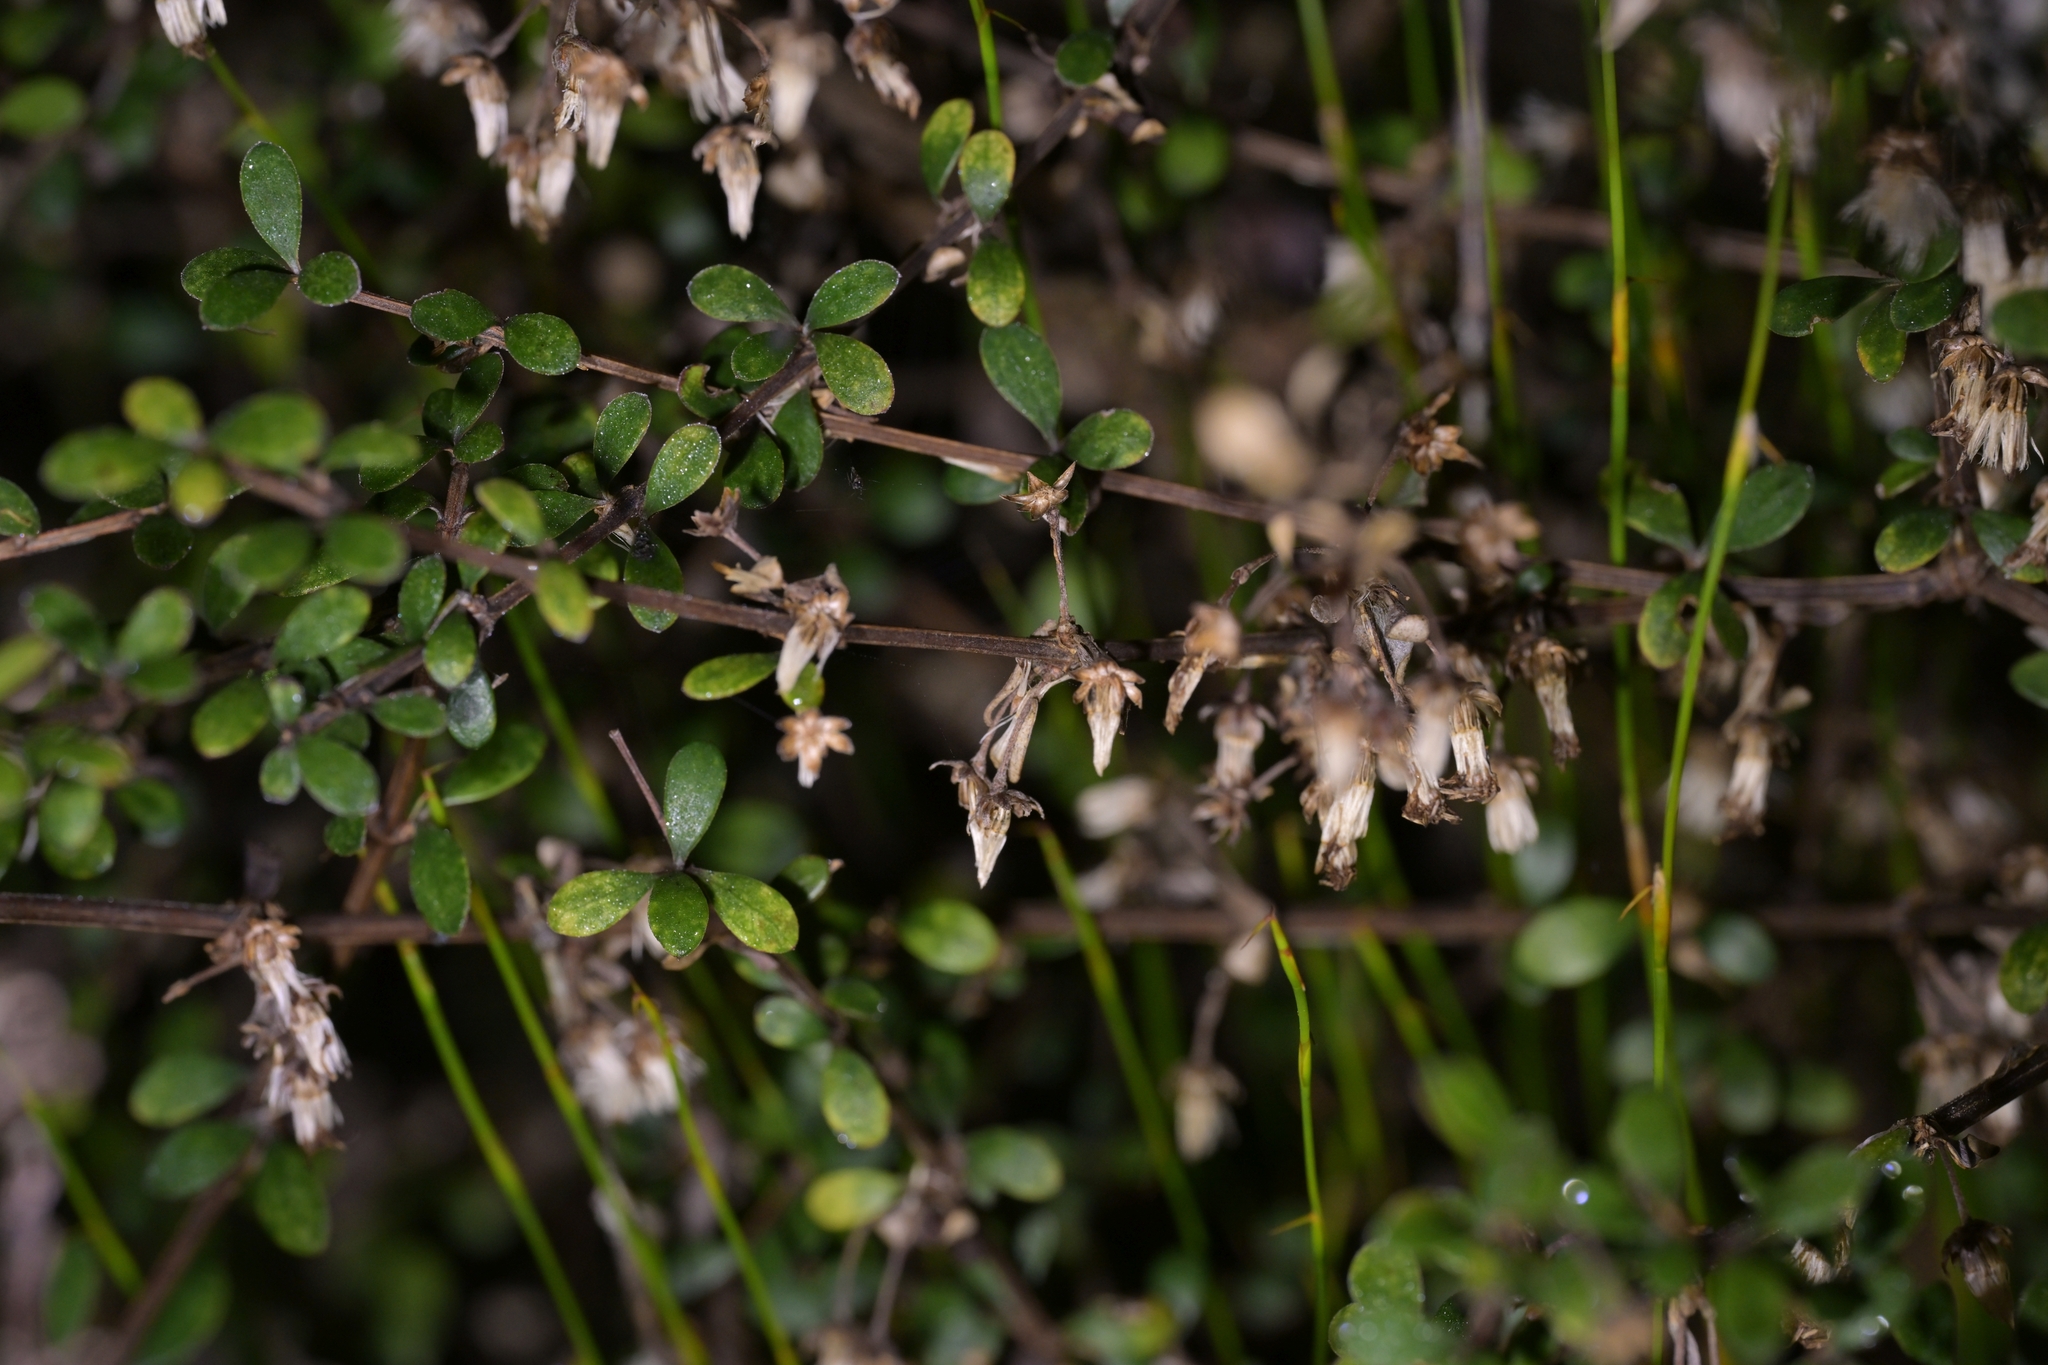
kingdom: Plantae
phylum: Tracheophyta
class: Magnoliopsida
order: Asterales
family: Asteraceae
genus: Olearia
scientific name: Olearia virgata
